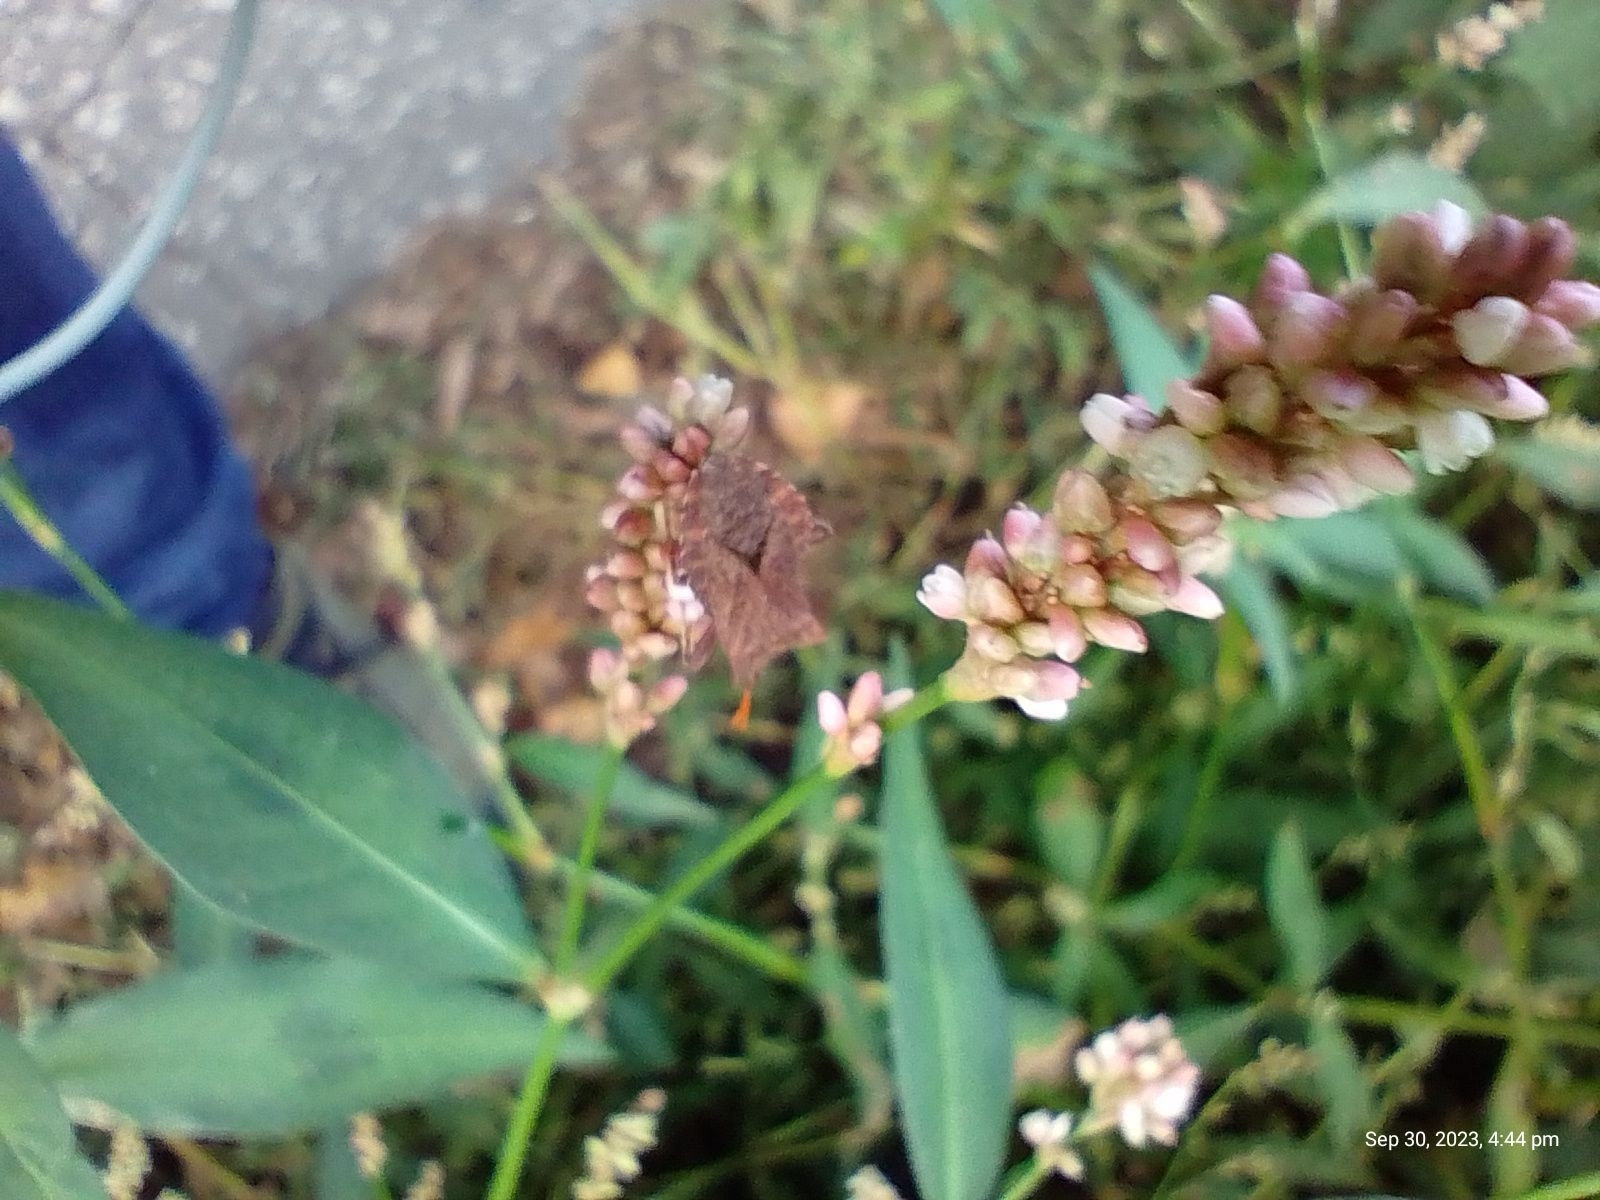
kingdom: Animalia
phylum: Arthropoda
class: Insecta
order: Hemiptera
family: Coreidae
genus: Coreus
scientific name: Coreus marginatus
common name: Dock bug
